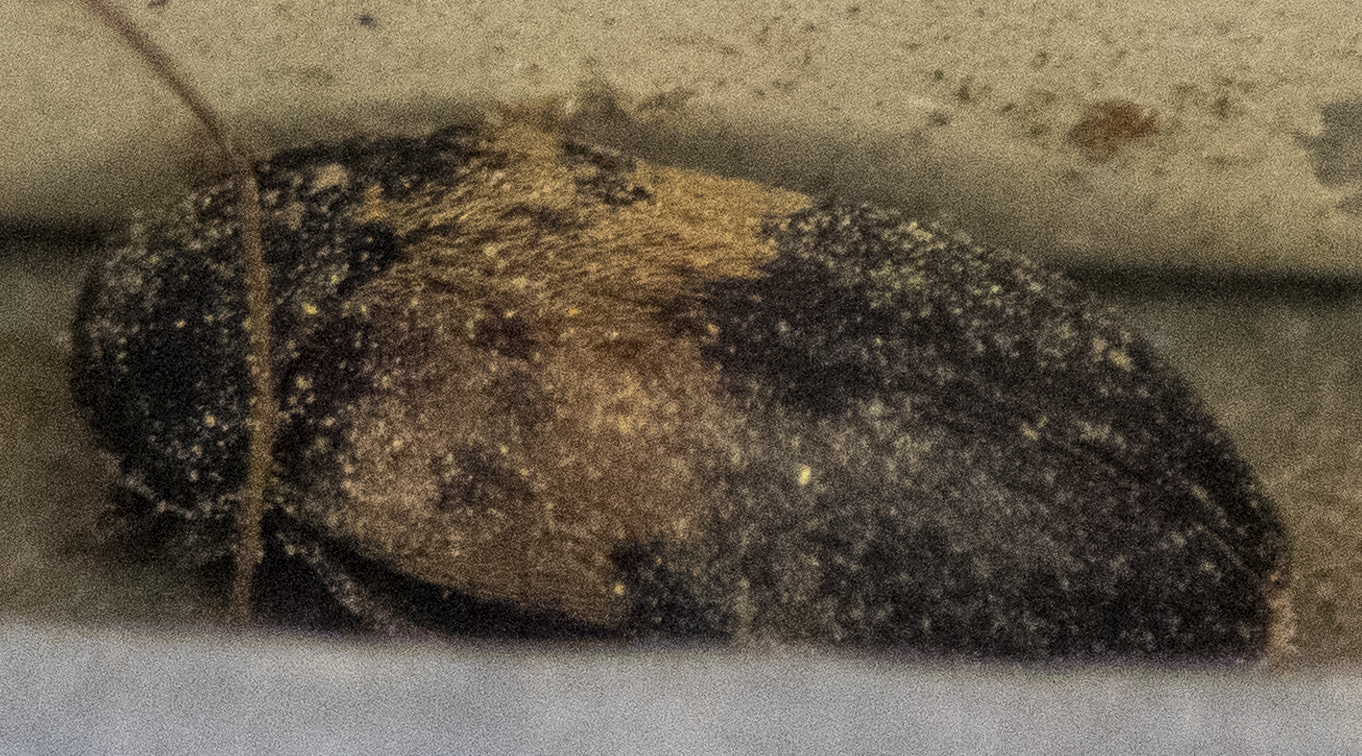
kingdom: Animalia
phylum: Arthropoda
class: Insecta
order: Coleoptera
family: Dermestidae
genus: Dermestes
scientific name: Dermestes lardarius
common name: Larder beetle
